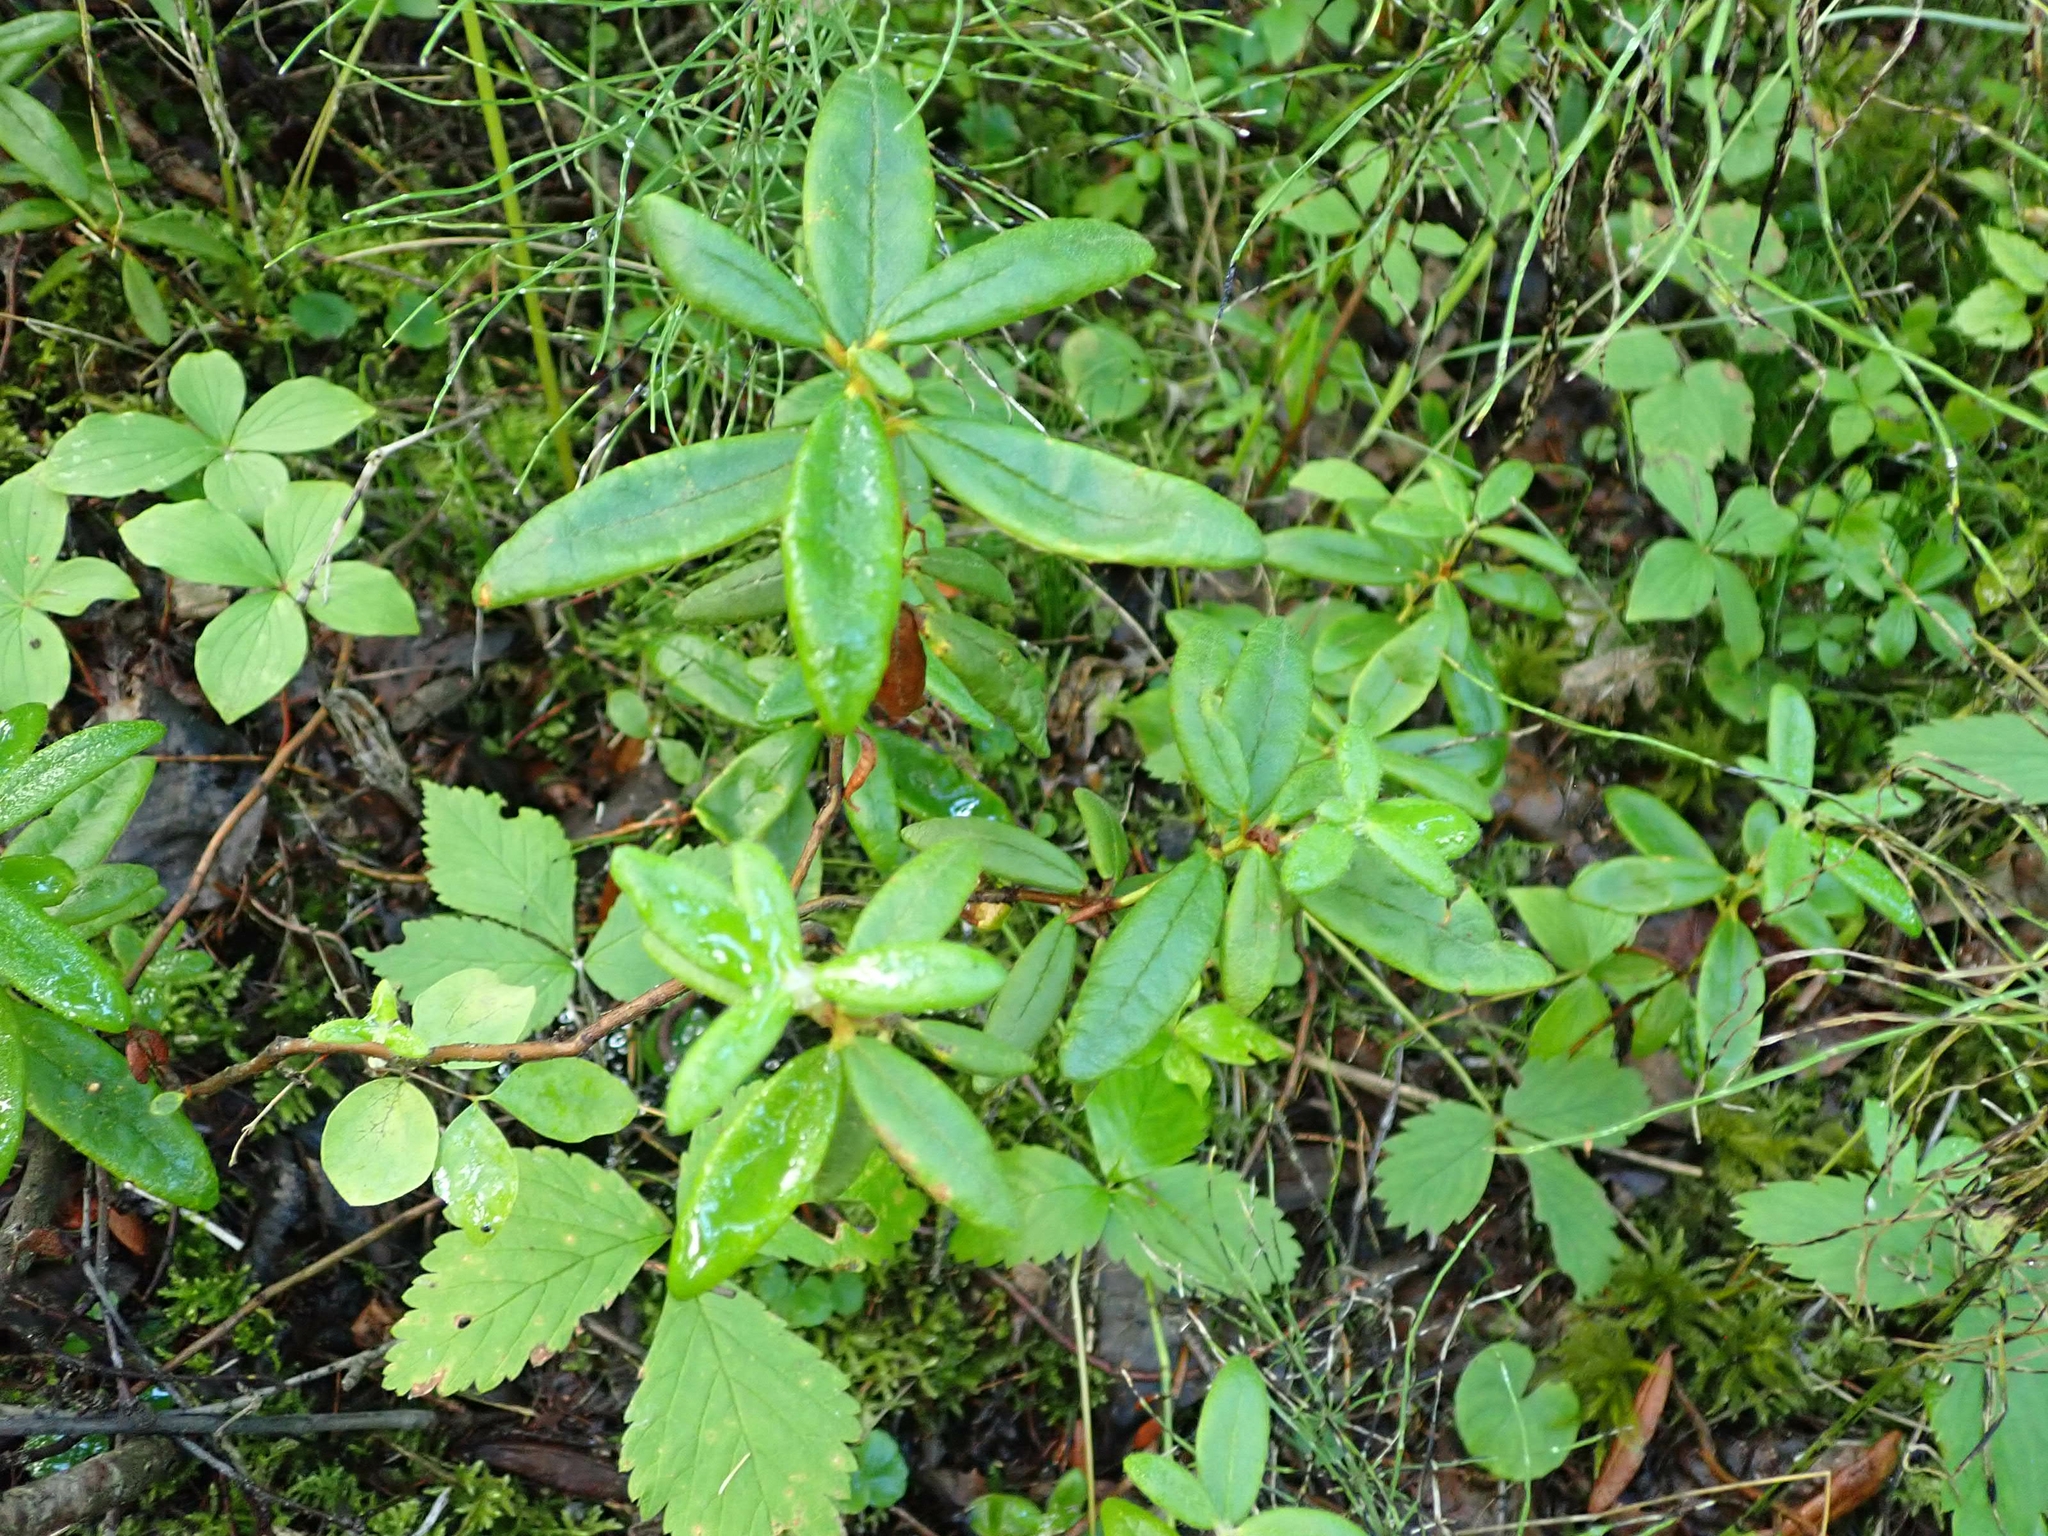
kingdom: Plantae
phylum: Tracheophyta
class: Magnoliopsida
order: Ericales
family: Ericaceae
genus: Rhododendron
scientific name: Rhododendron groenlandicum
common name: Bog labrador tea
